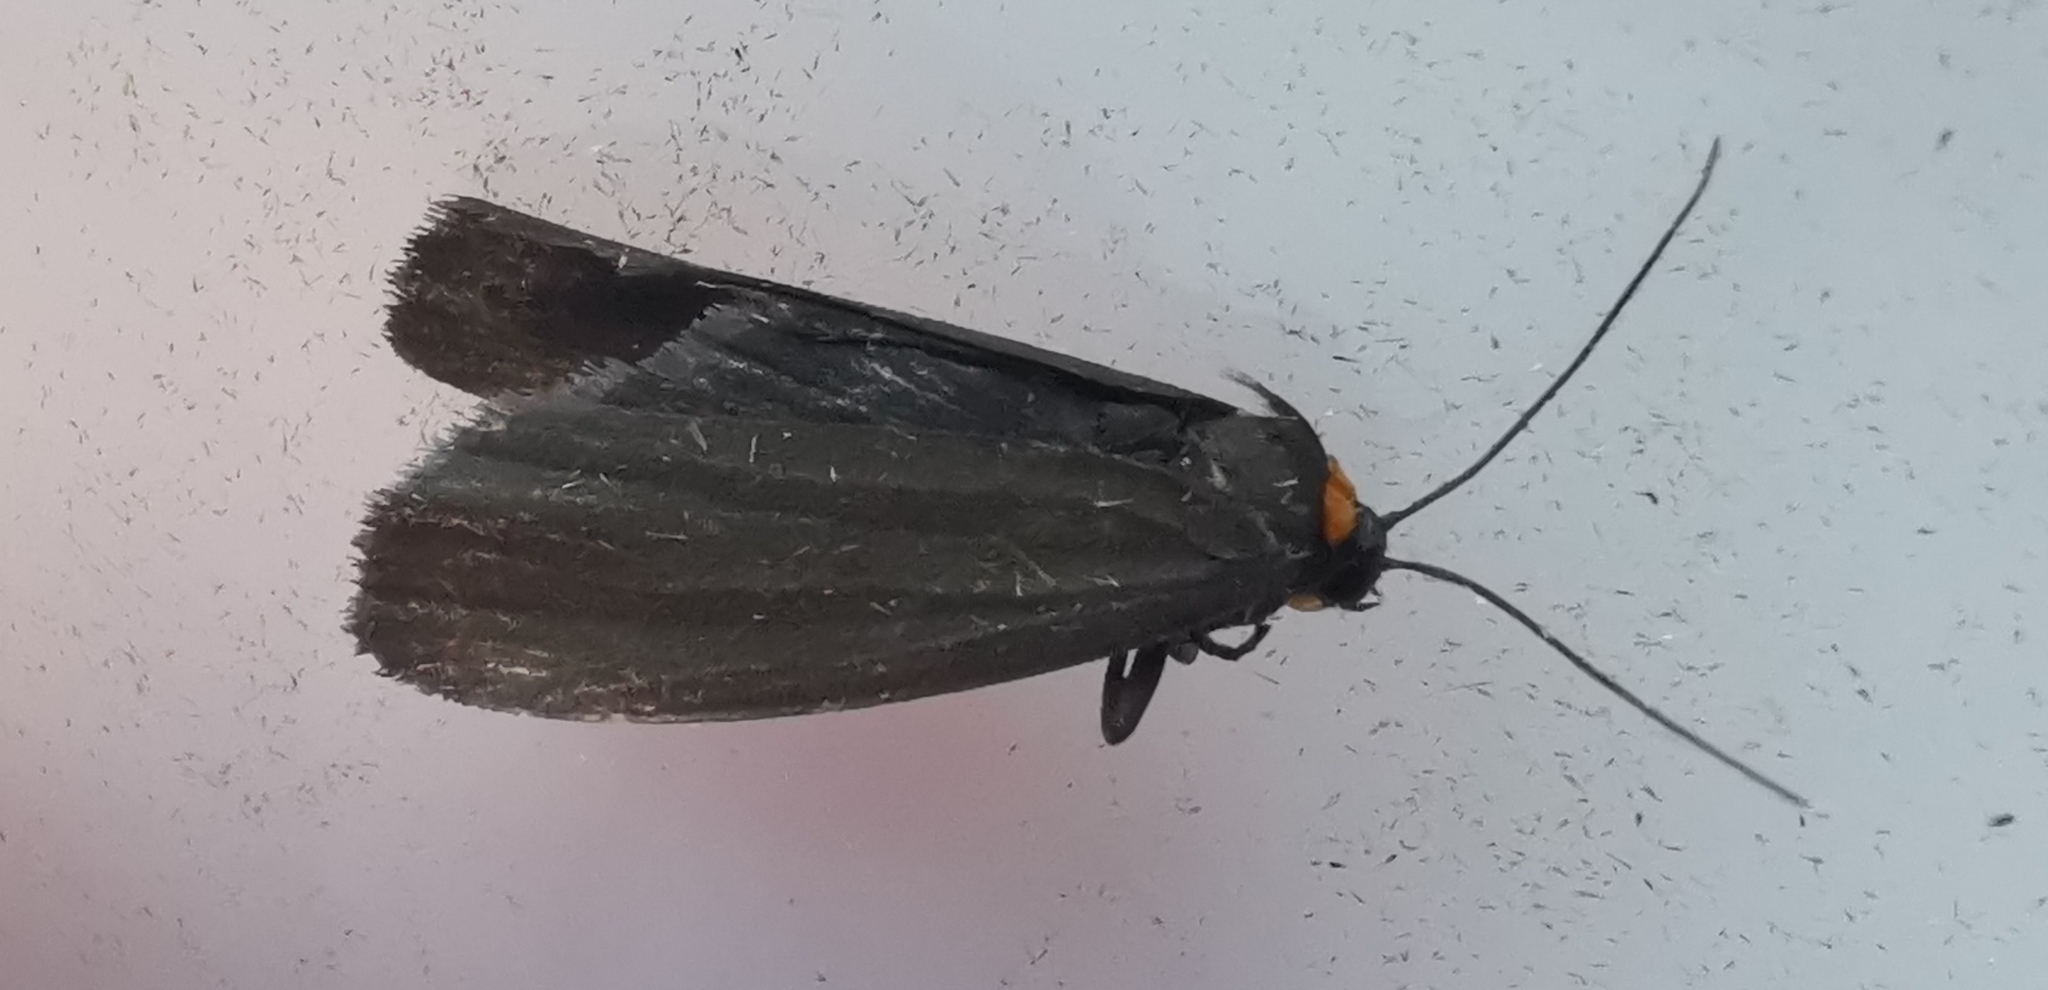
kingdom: Animalia
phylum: Arthropoda
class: Insecta
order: Lepidoptera
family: Erebidae
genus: Atolmis
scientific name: Atolmis rubricollis
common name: Red-necked footman
